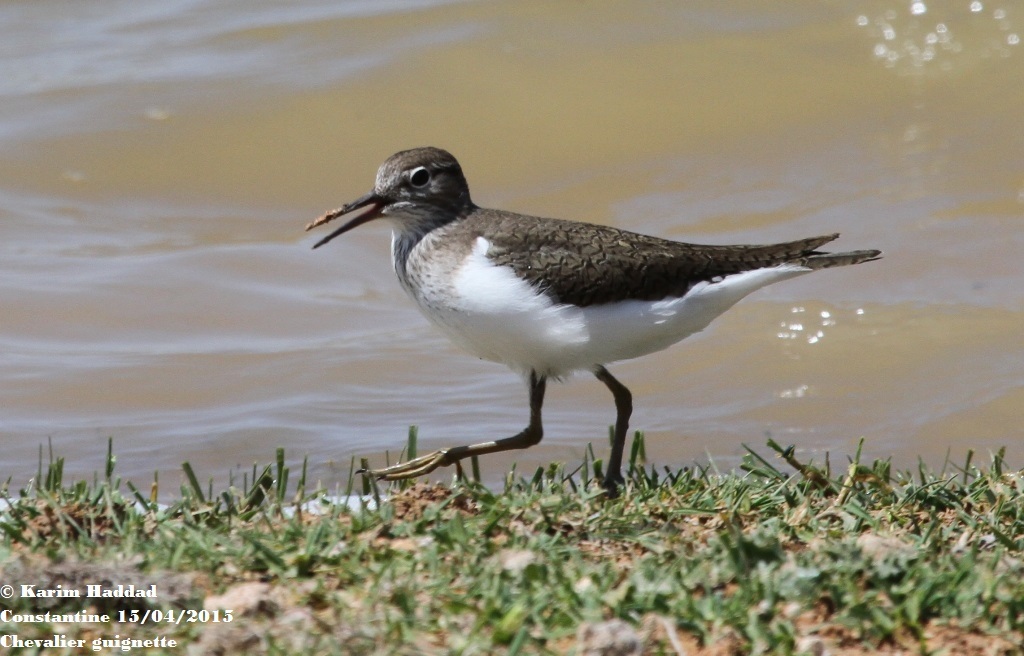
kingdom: Animalia
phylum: Chordata
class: Aves
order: Charadriiformes
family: Scolopacidae
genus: Actitis
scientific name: Actitis hypoleucos
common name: Common sandpiper
